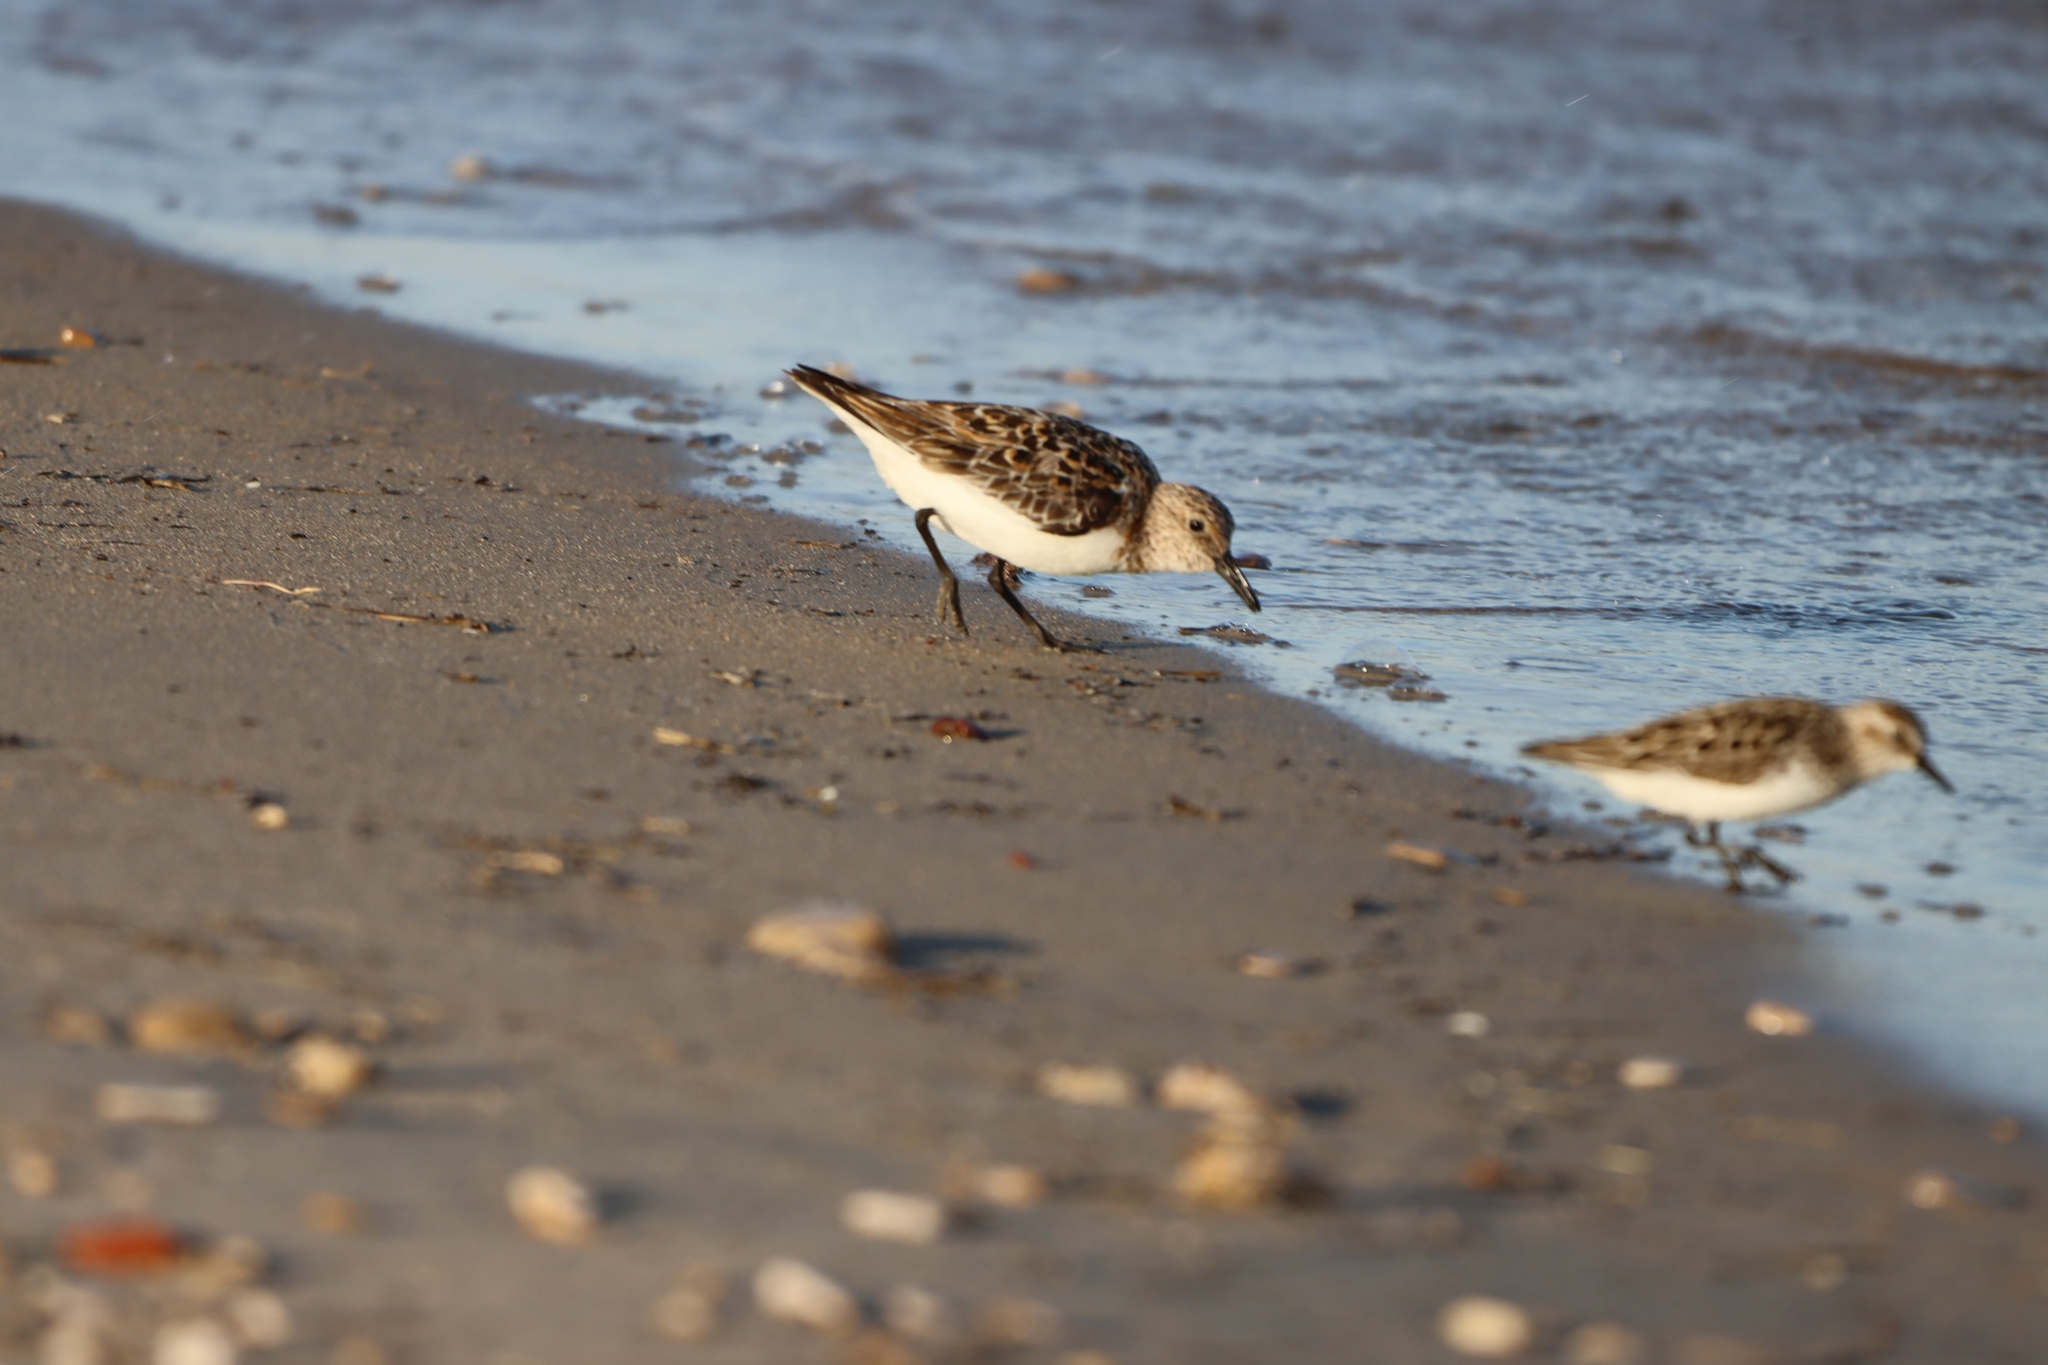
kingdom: Animalia
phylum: Chordata
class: Aves
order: Charadriiformes
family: Scolopacidae
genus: Calidris
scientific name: Calidris alba
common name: Sanderling
